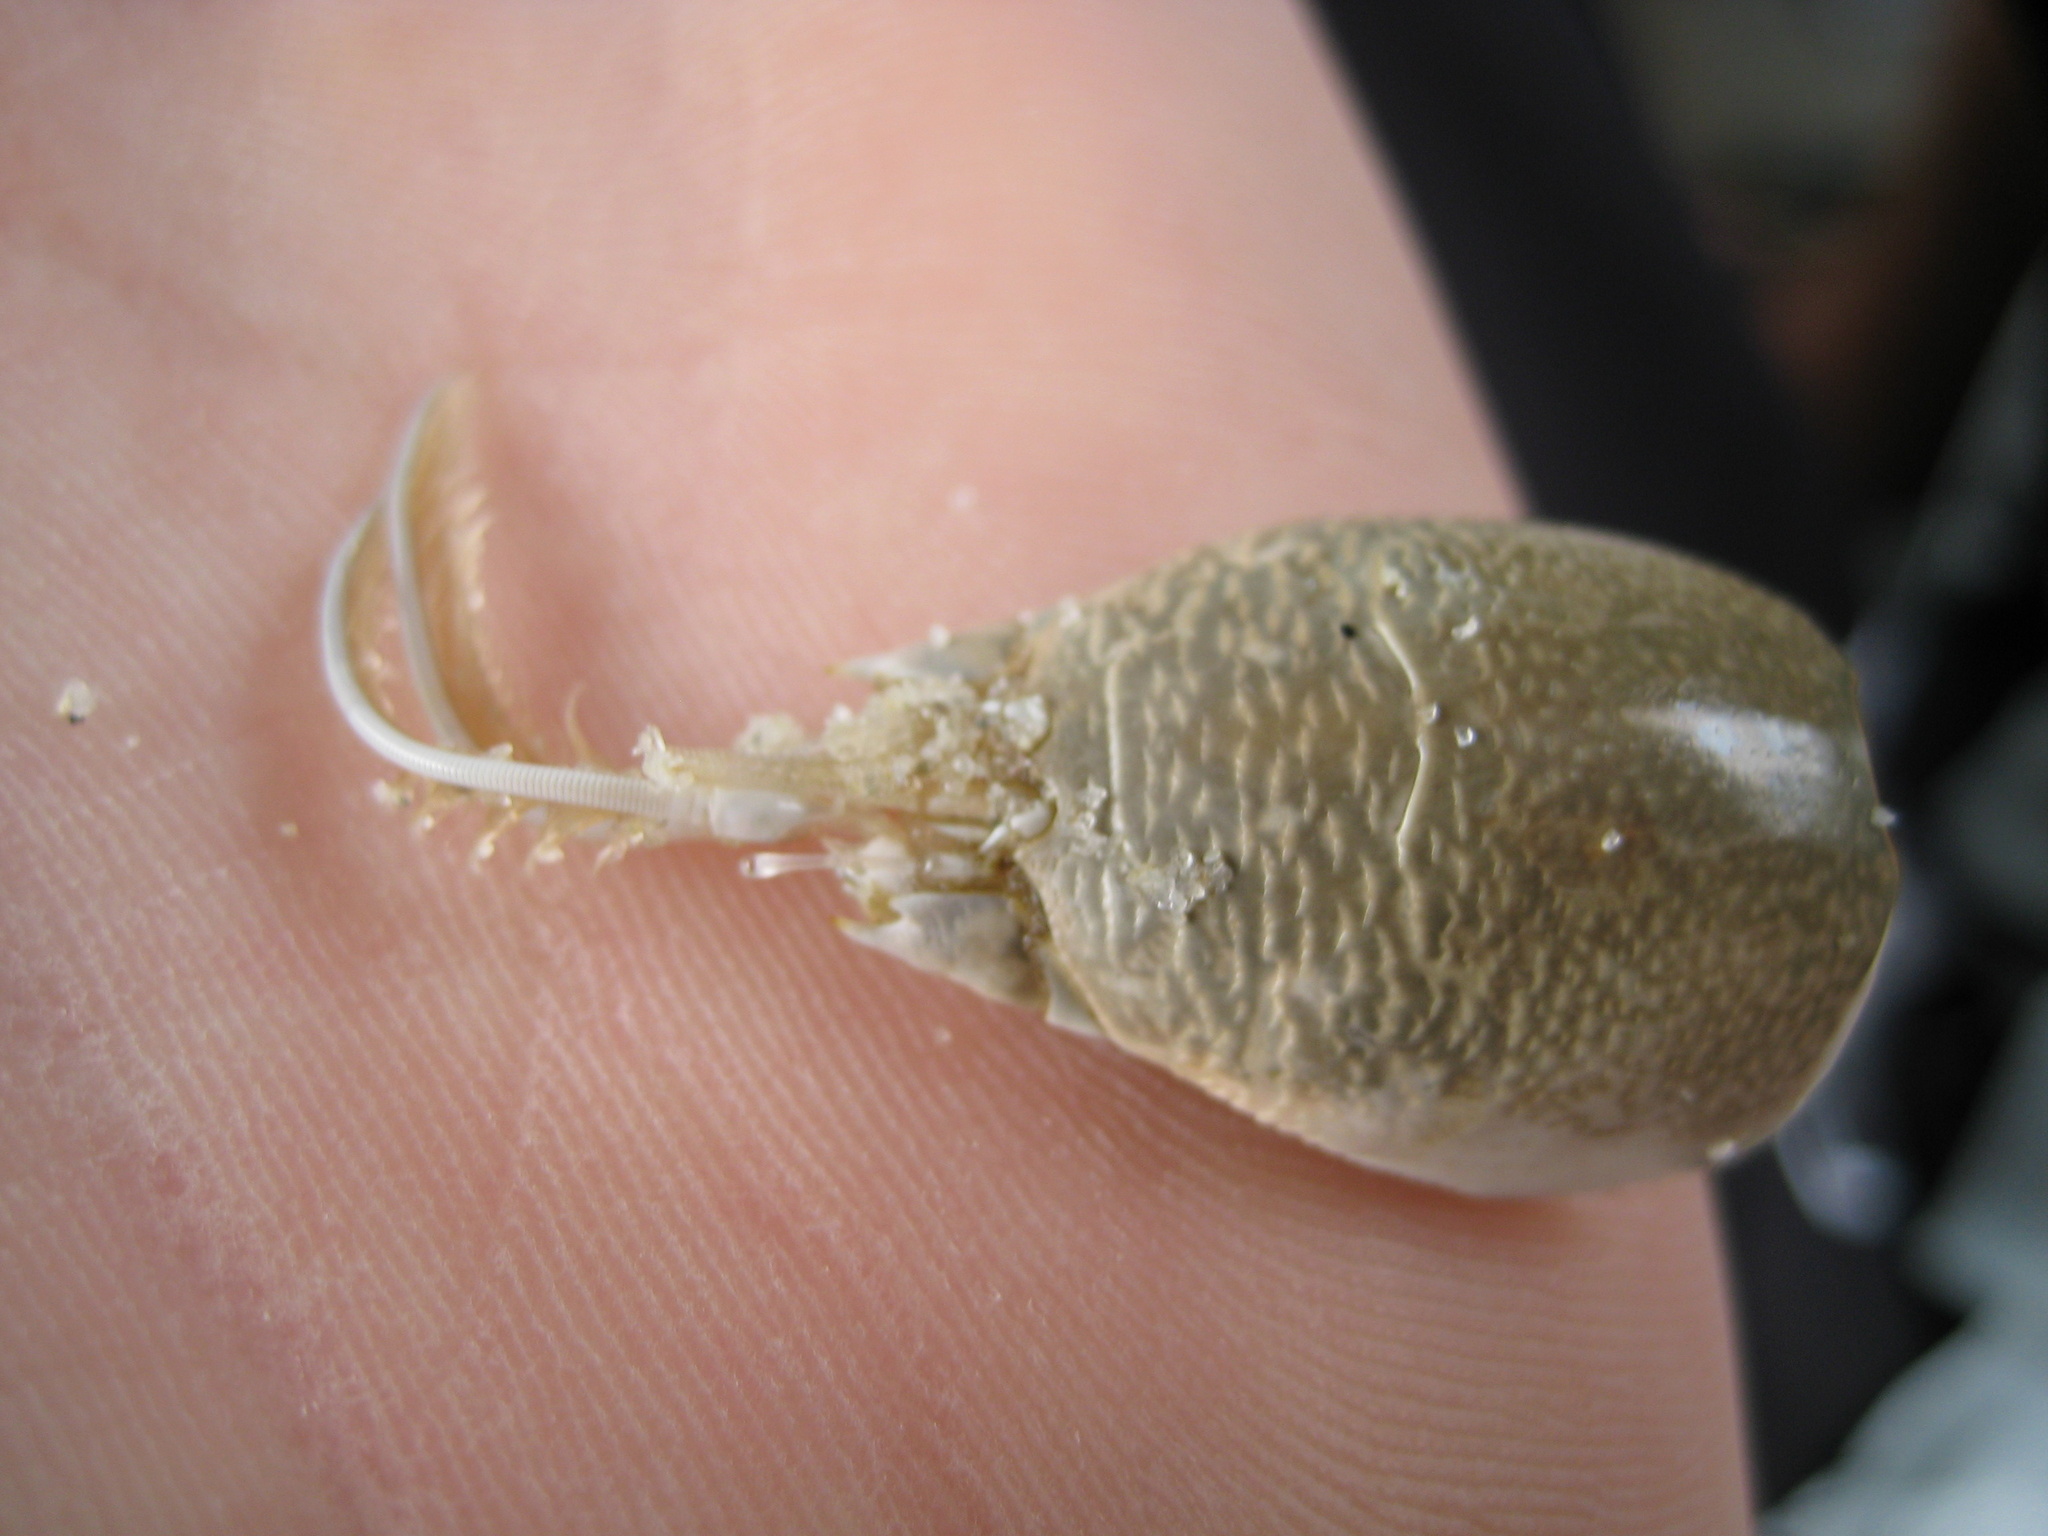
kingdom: Animalia
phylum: Arthropoda
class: Malacostraca
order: Decapoda
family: Hippidae
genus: Emerita
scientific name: Emerita analoga
